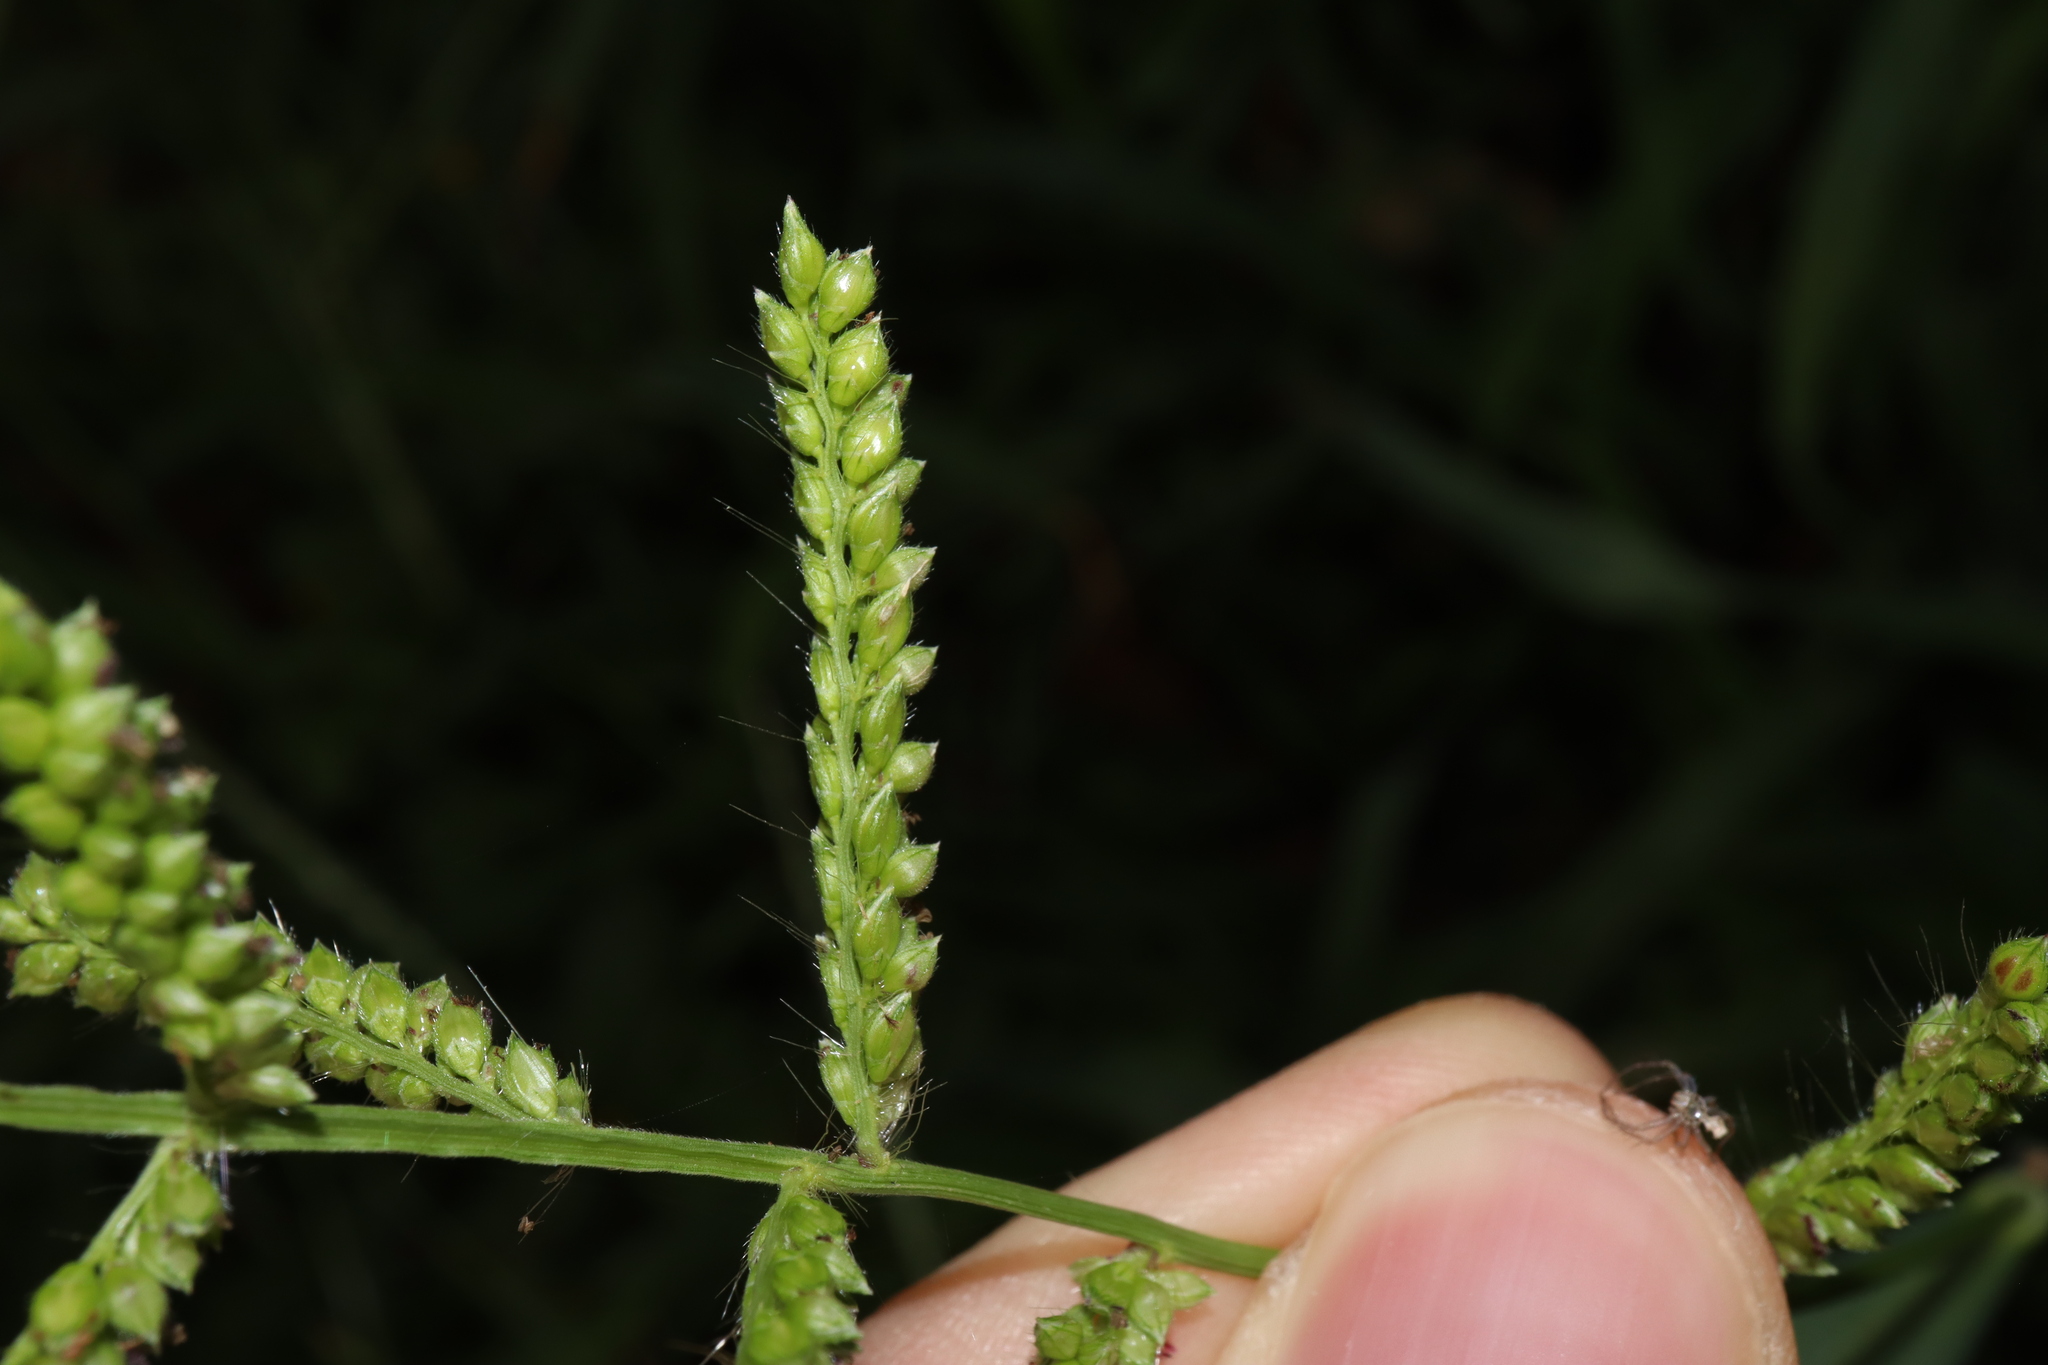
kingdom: Plantae
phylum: Tracheophyta
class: Liliopsida
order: Poales
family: Poaceae
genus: Echinochloa
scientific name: Echinochloa crus-galli
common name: Cockspur
